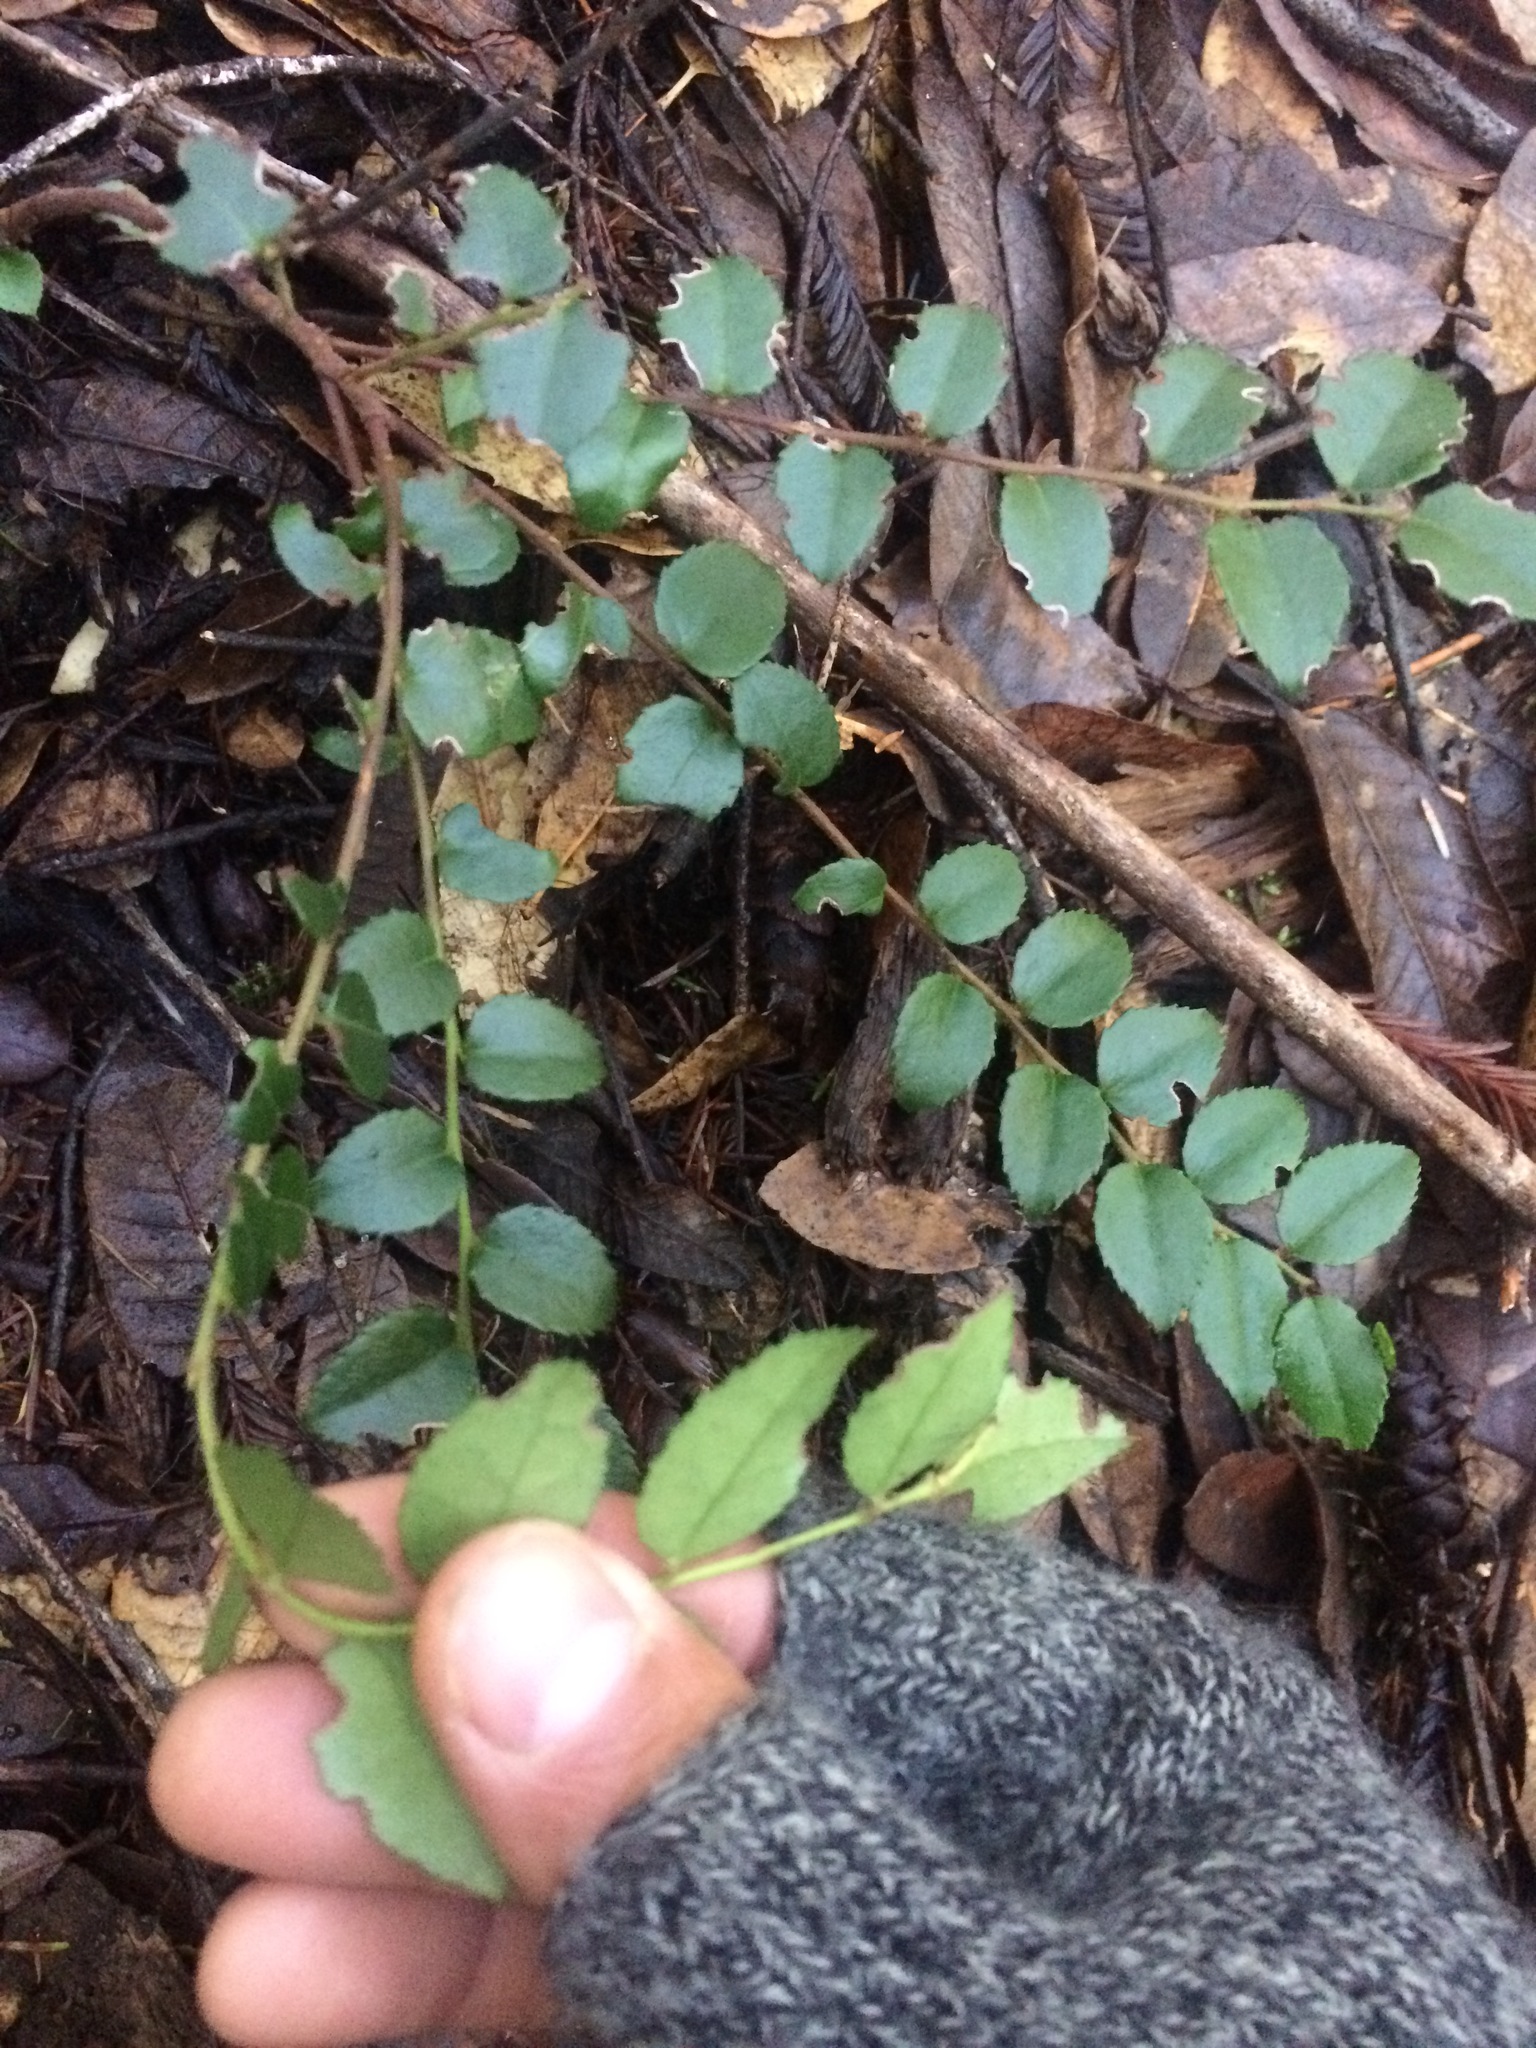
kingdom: Plantae
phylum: Tracheophyta
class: Magnoliopsida
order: Ericales
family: Ericaceae
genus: Vaccinium
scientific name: Vaccinium ovatum
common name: California-huckleberry
